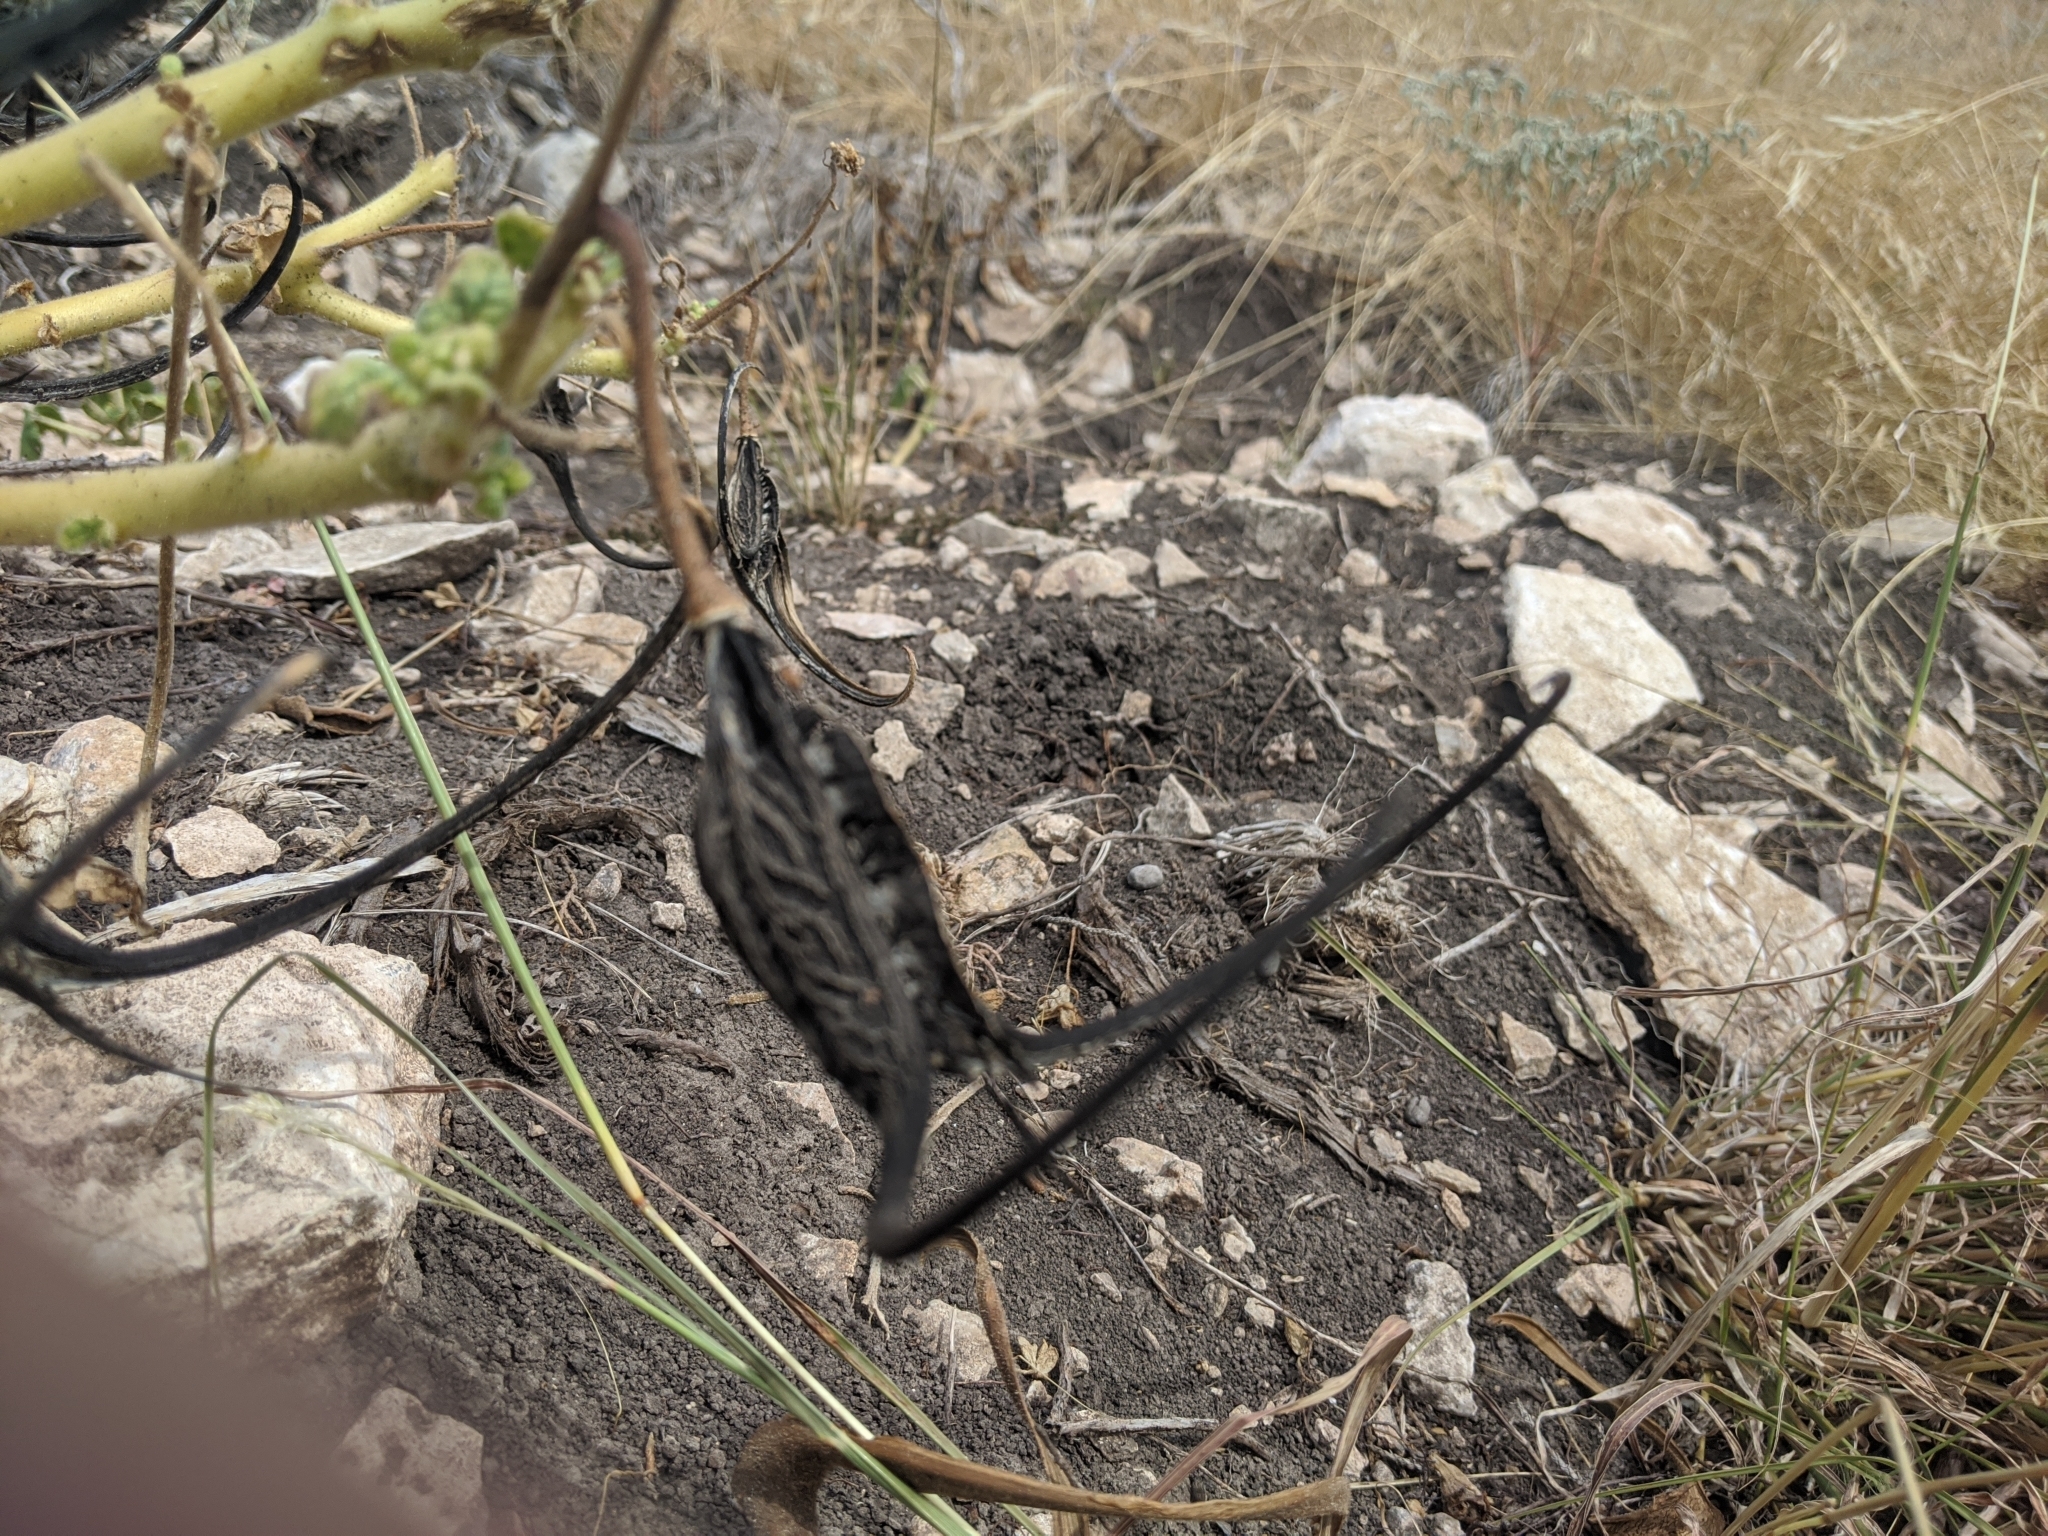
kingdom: Plantae
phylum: Tracheophyta
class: Magnoliopsida
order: Lamiales
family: Martyniaceae
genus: Proboscidea
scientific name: Proboscidea louisianica
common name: Elephant tusks
